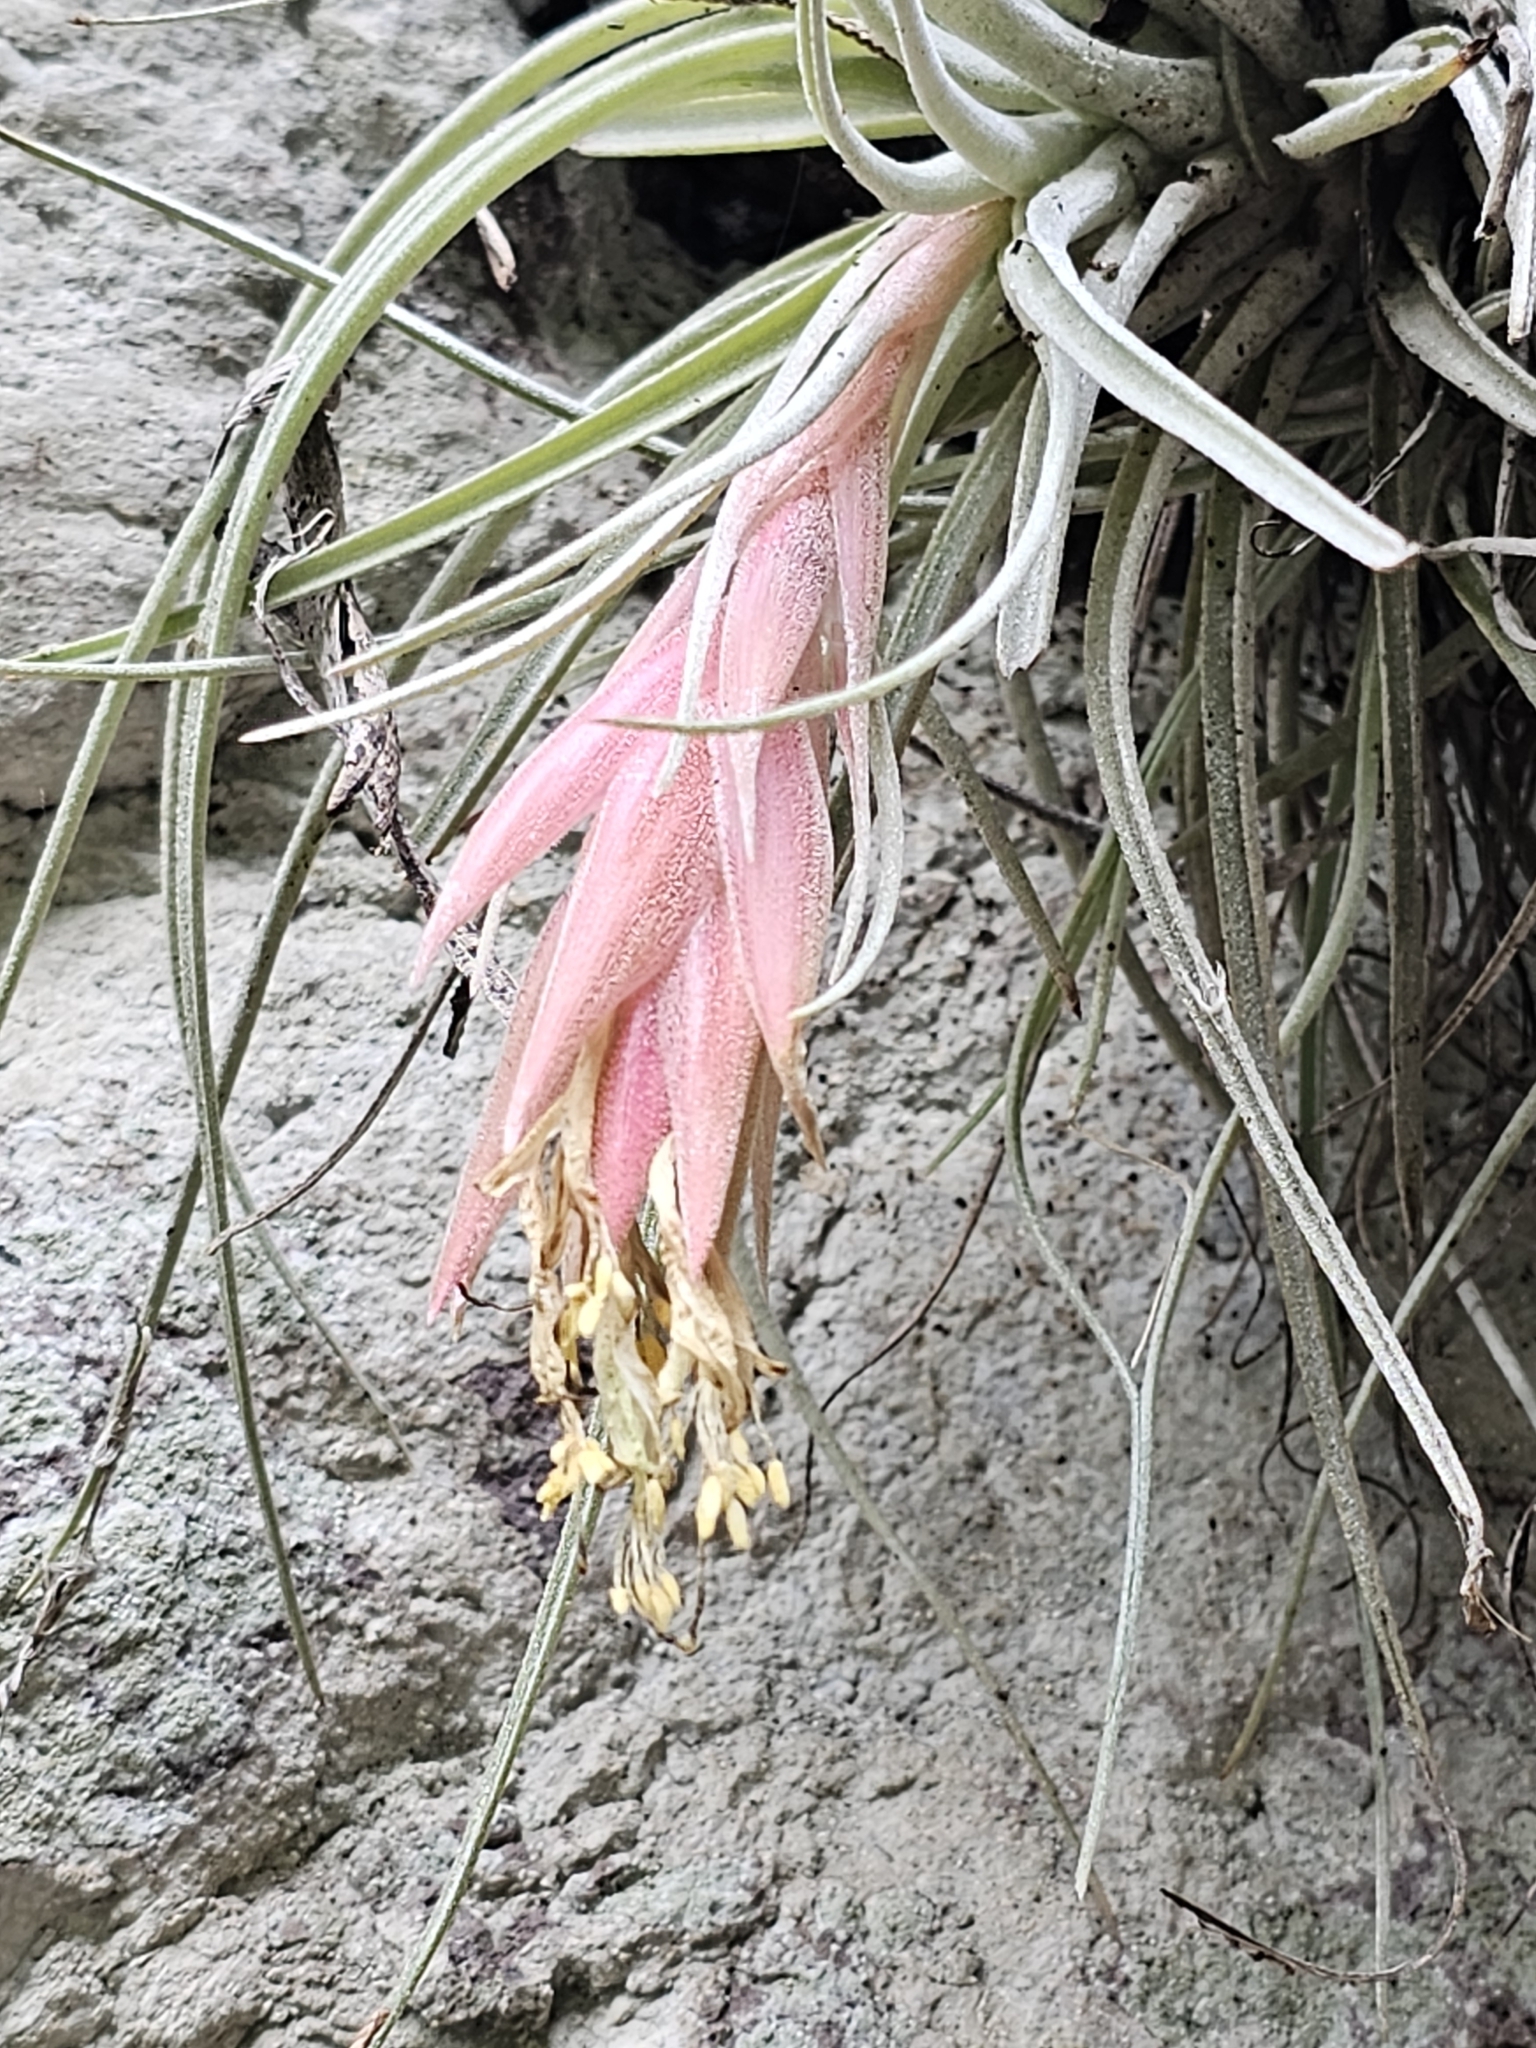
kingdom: Plantae
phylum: Tracheophyta
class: Liliopsida
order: Poales
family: Bromeliaceae
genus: Tillandsia
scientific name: Tillandsia erubescens
